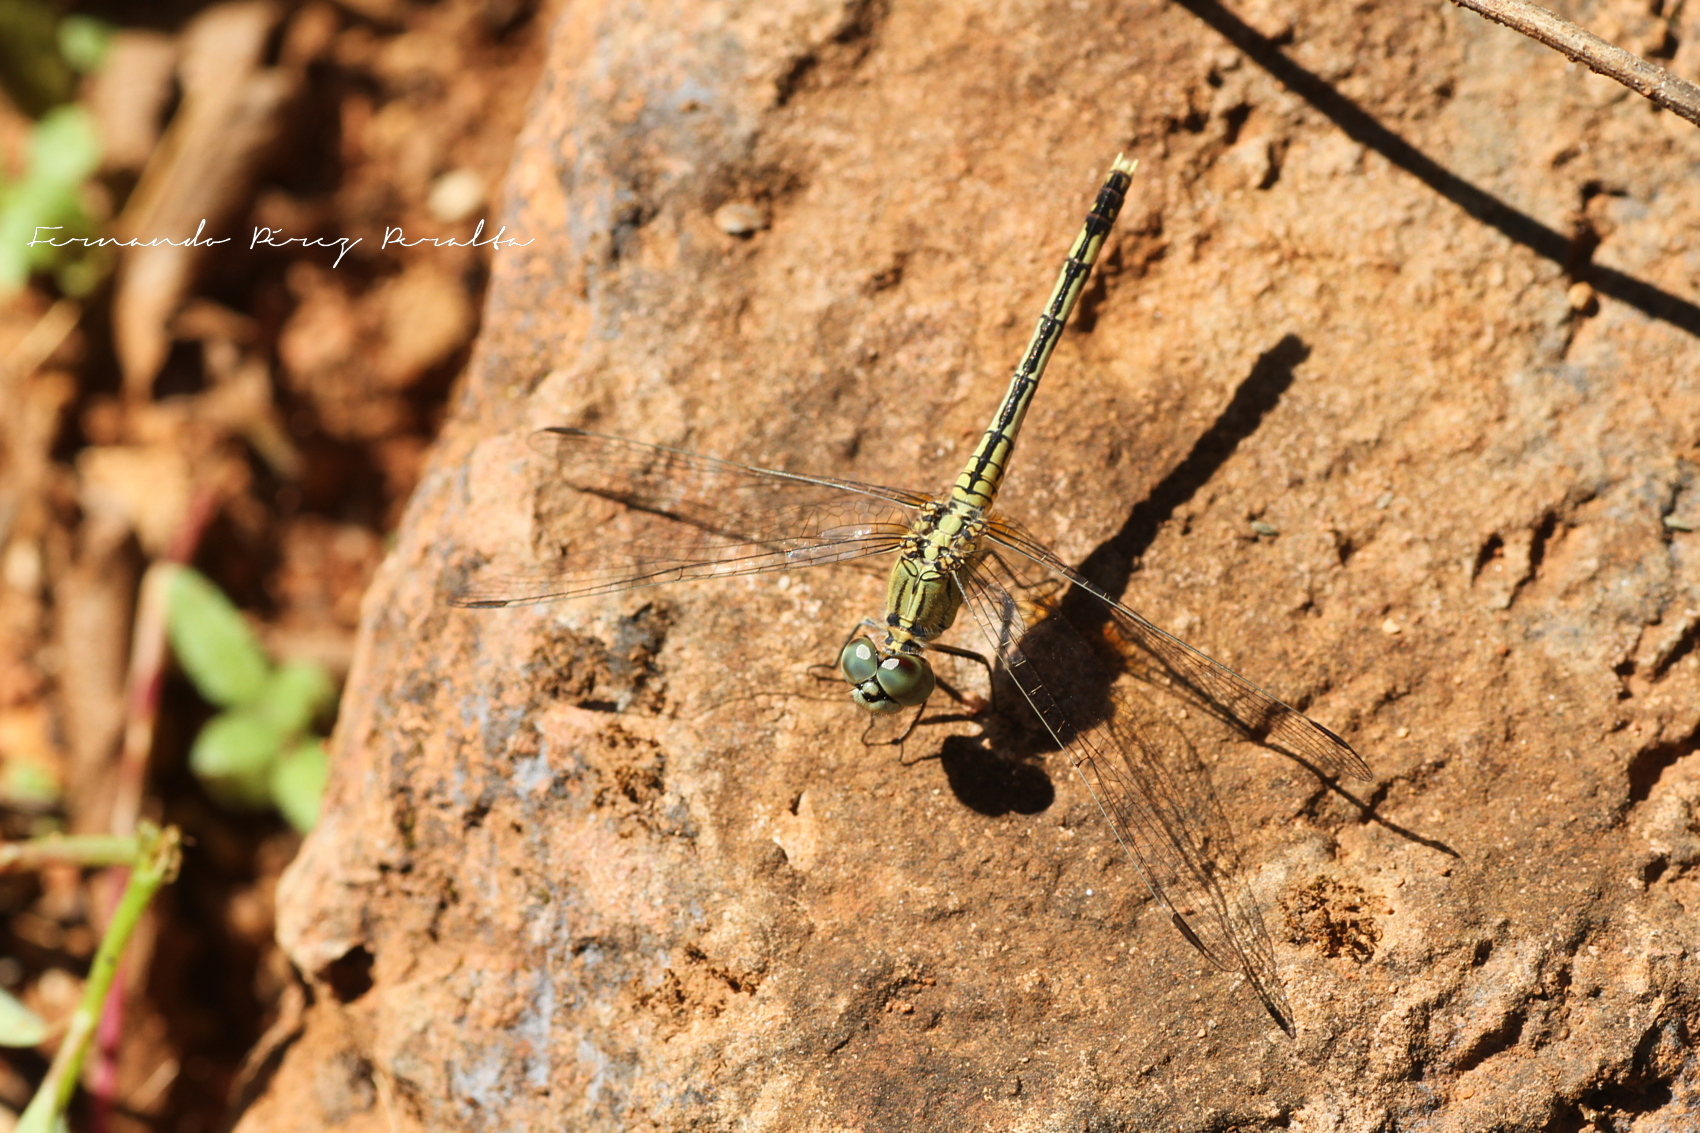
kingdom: Animalia
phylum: Arthropoda
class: Insecta
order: Odonata
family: Libellulidae
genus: Diplacodes
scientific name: Diplacodes trivialis
